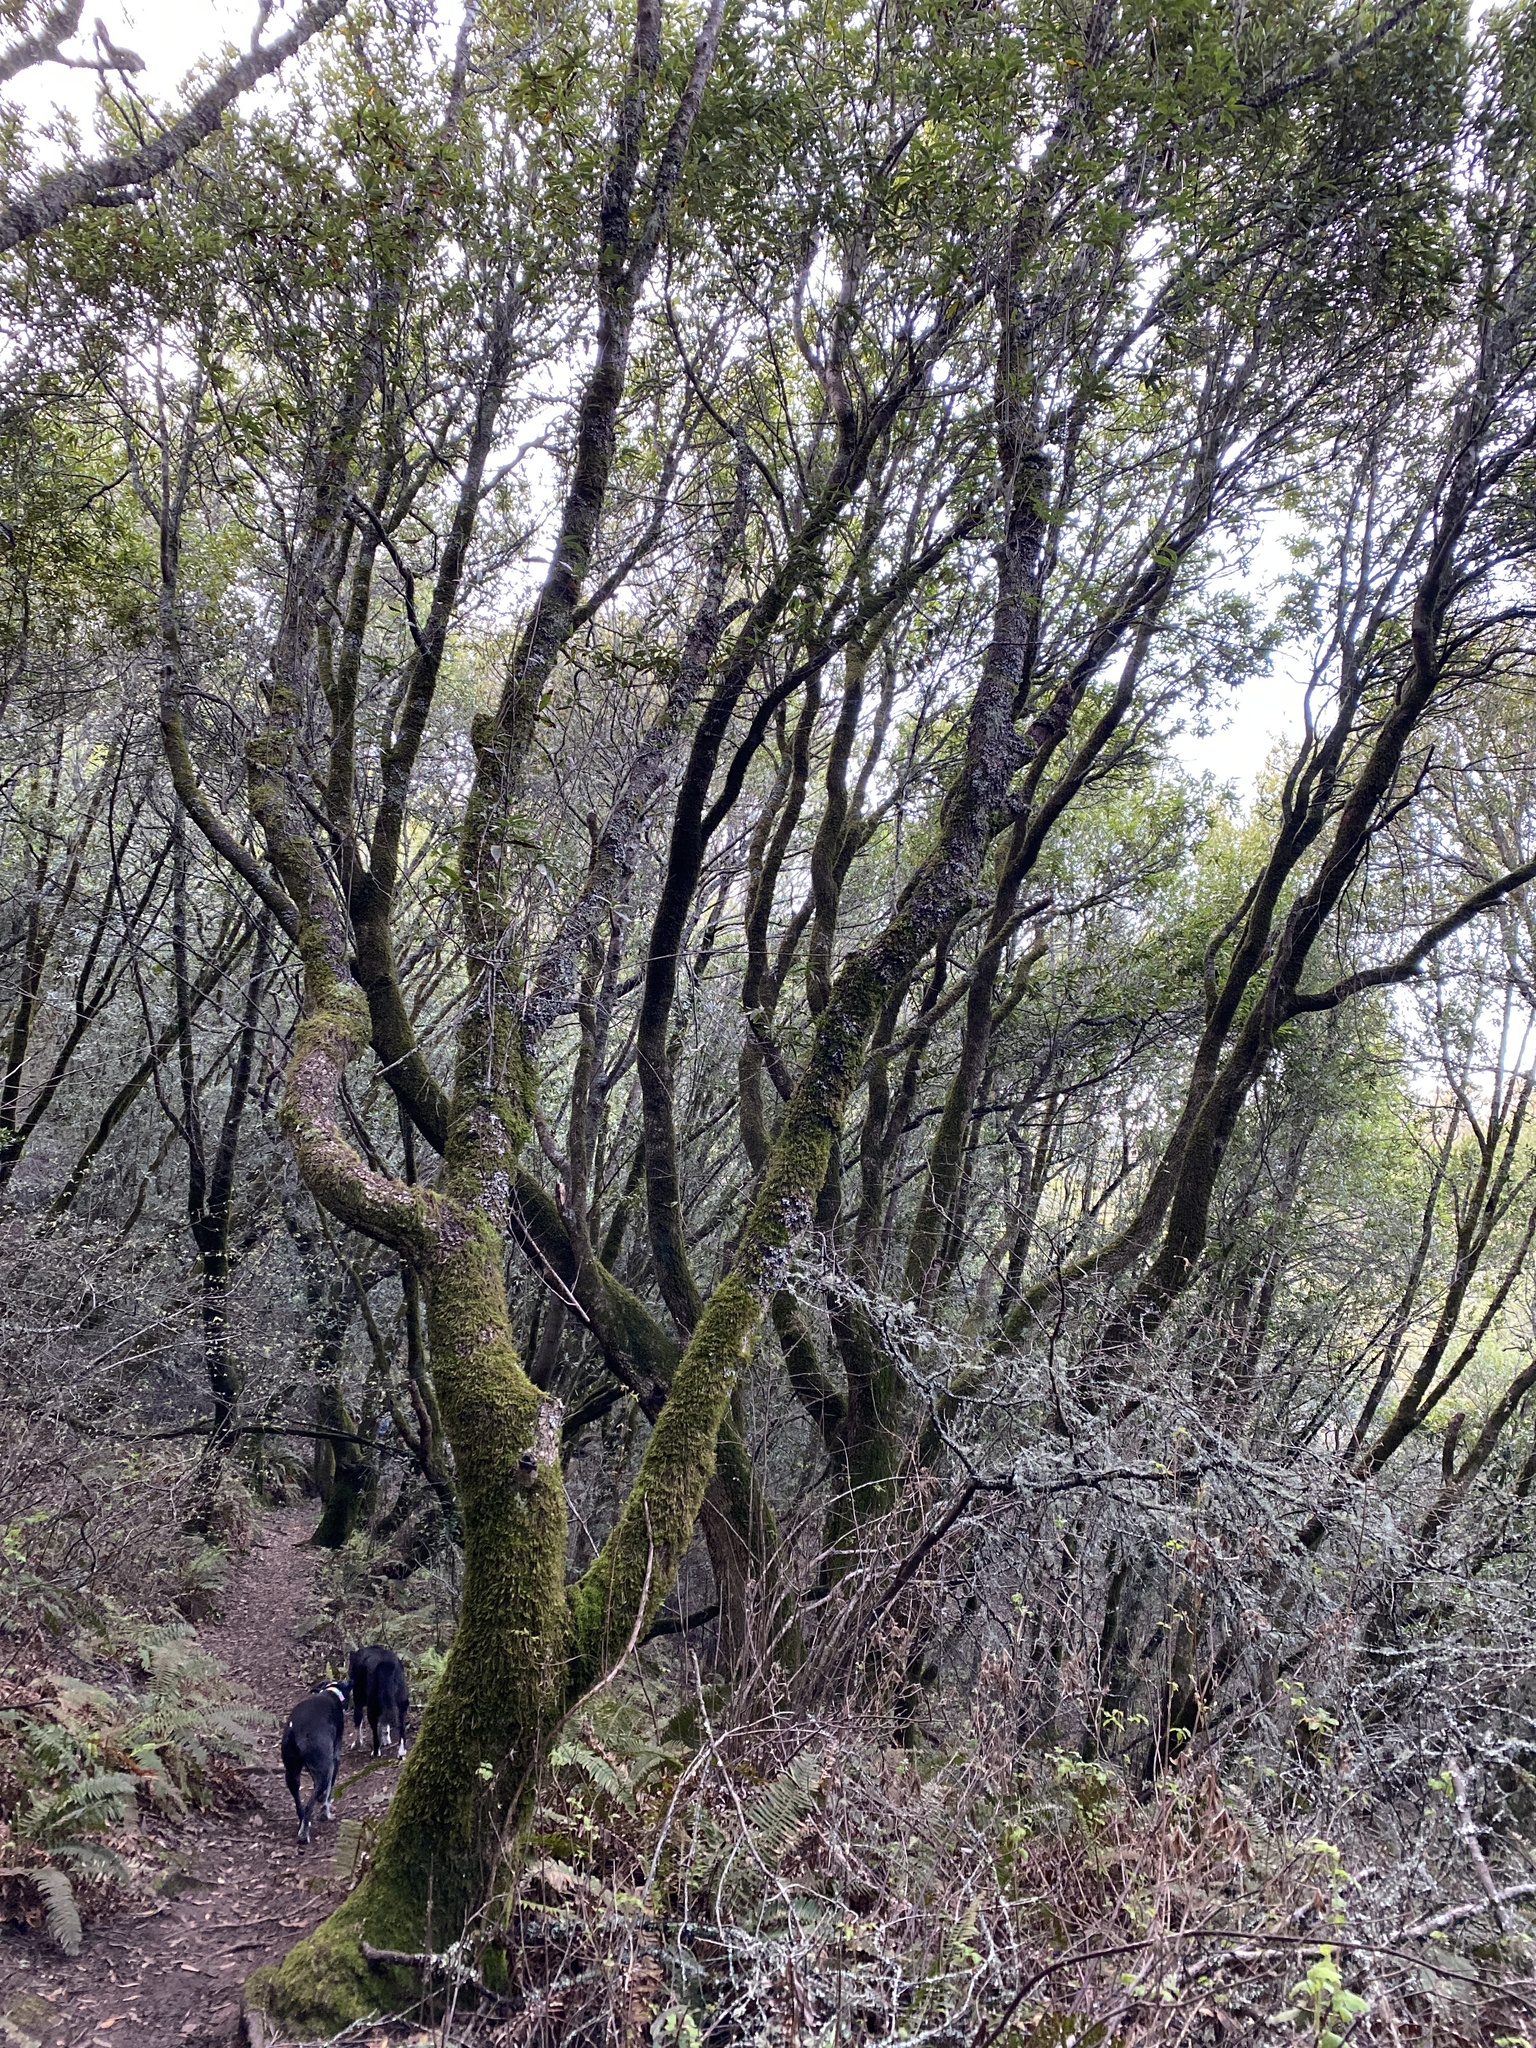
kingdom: Plantae
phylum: Tracheophyta
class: Magnoliopsida
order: Laurales
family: Lauraceae
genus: Umbellularia
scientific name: Umbellularia californica
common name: California bay
